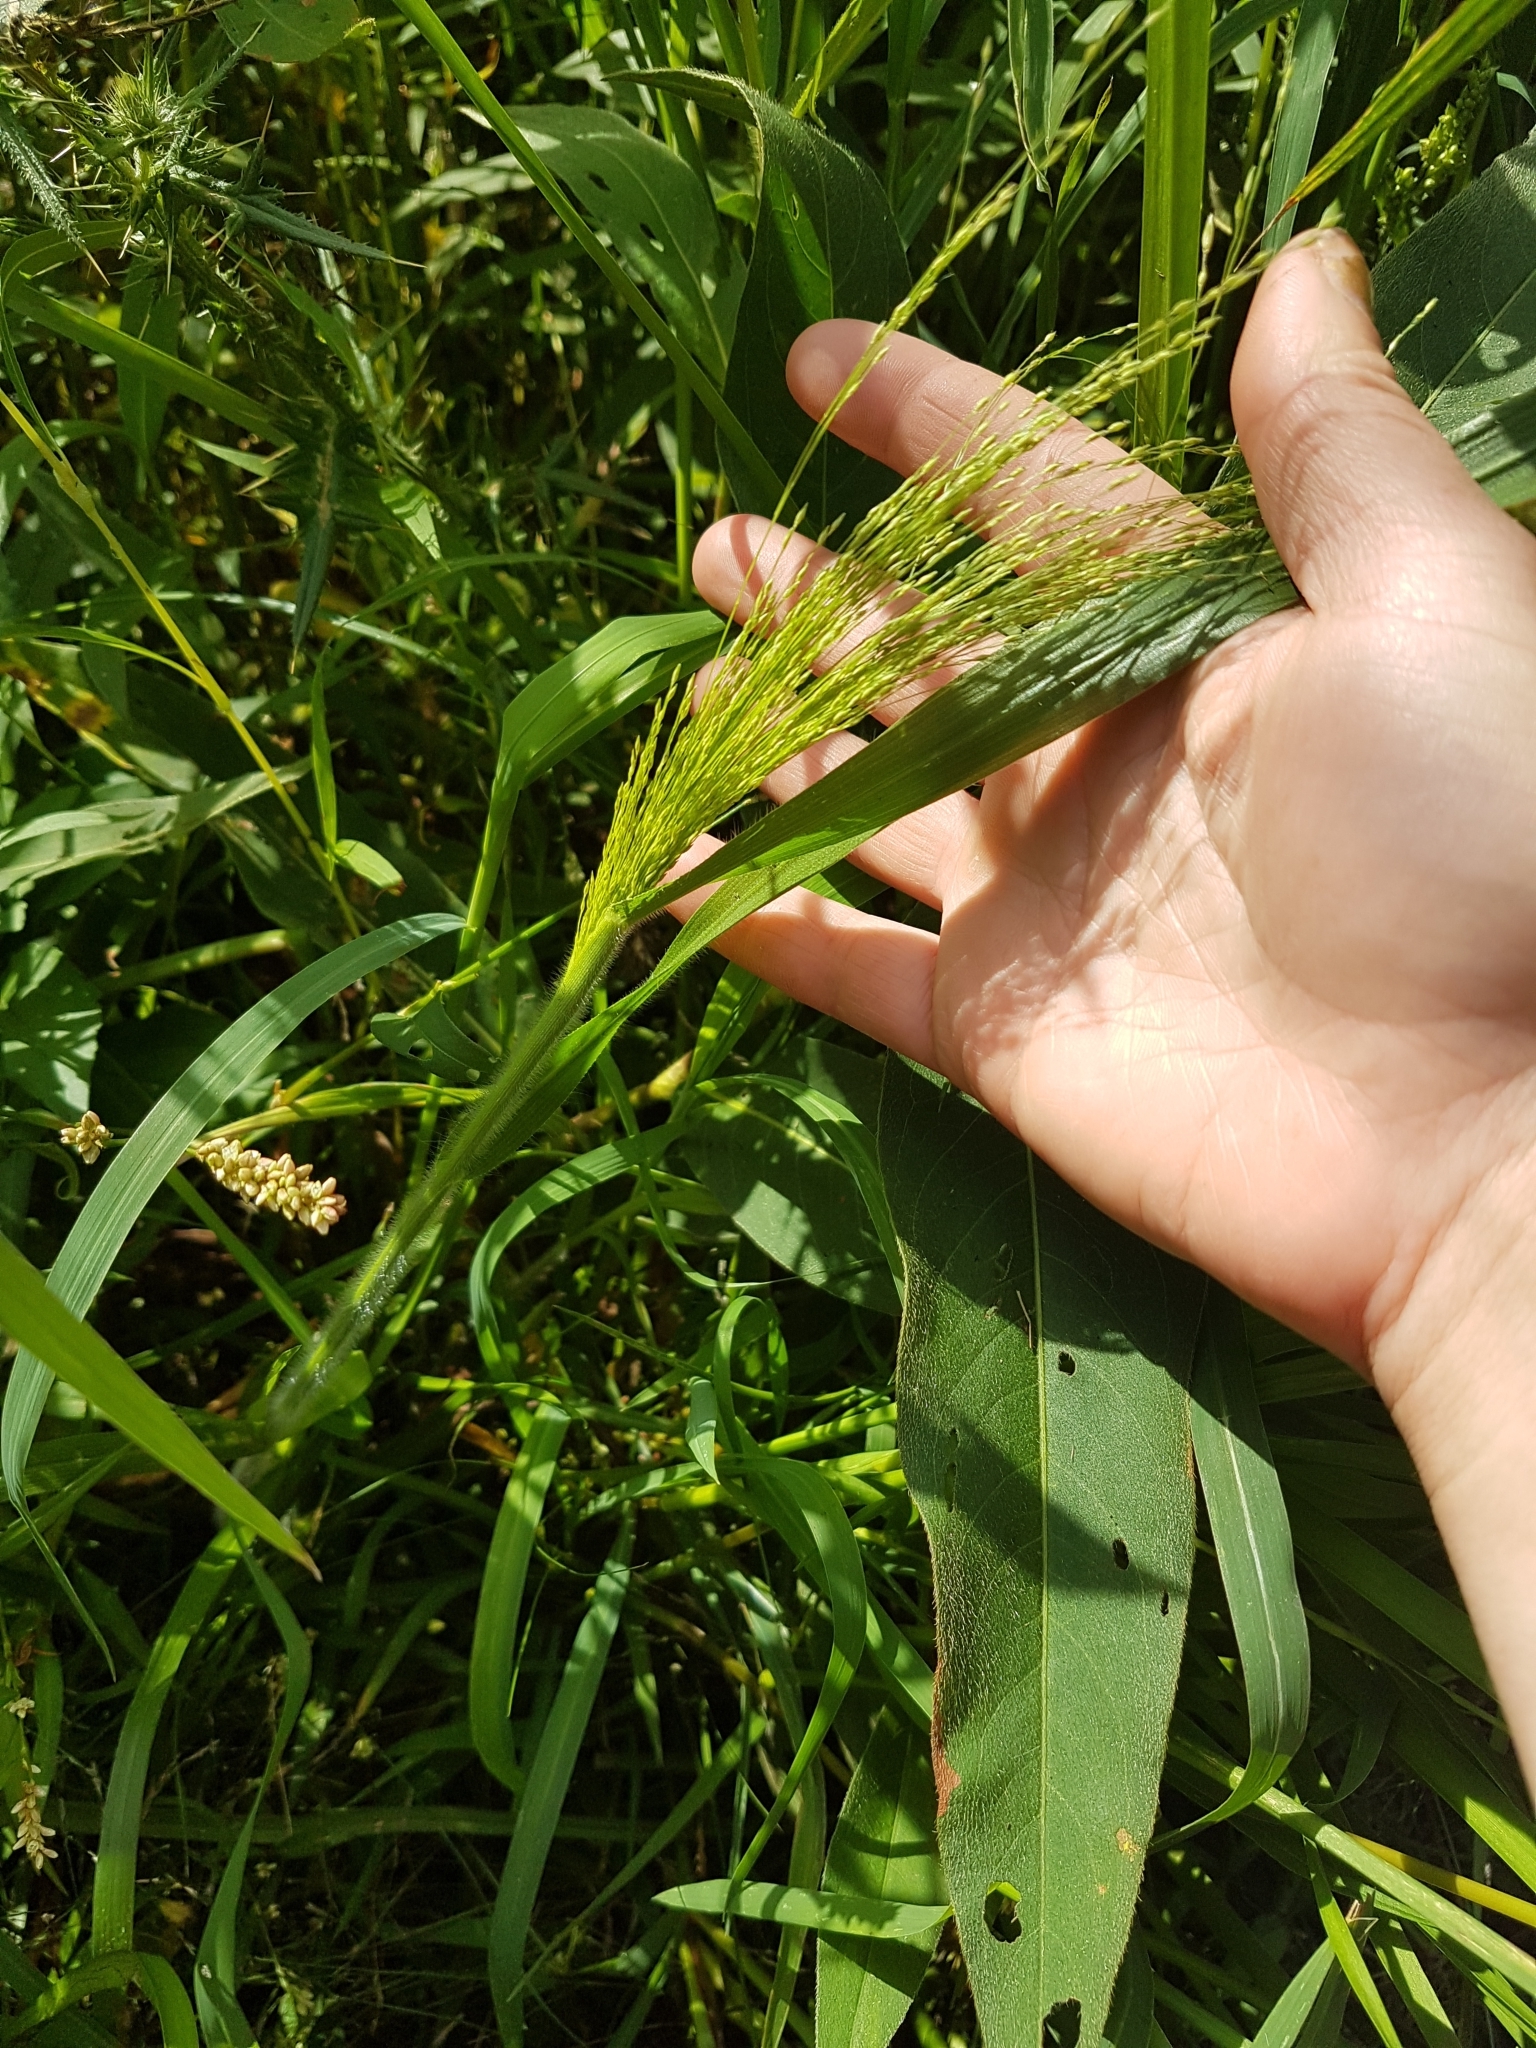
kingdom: Plantae
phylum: Tracheophyta
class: Liliopsida
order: Poales
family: Poaceae
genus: Panicum
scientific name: Panicum capillare
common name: Witch-grass
